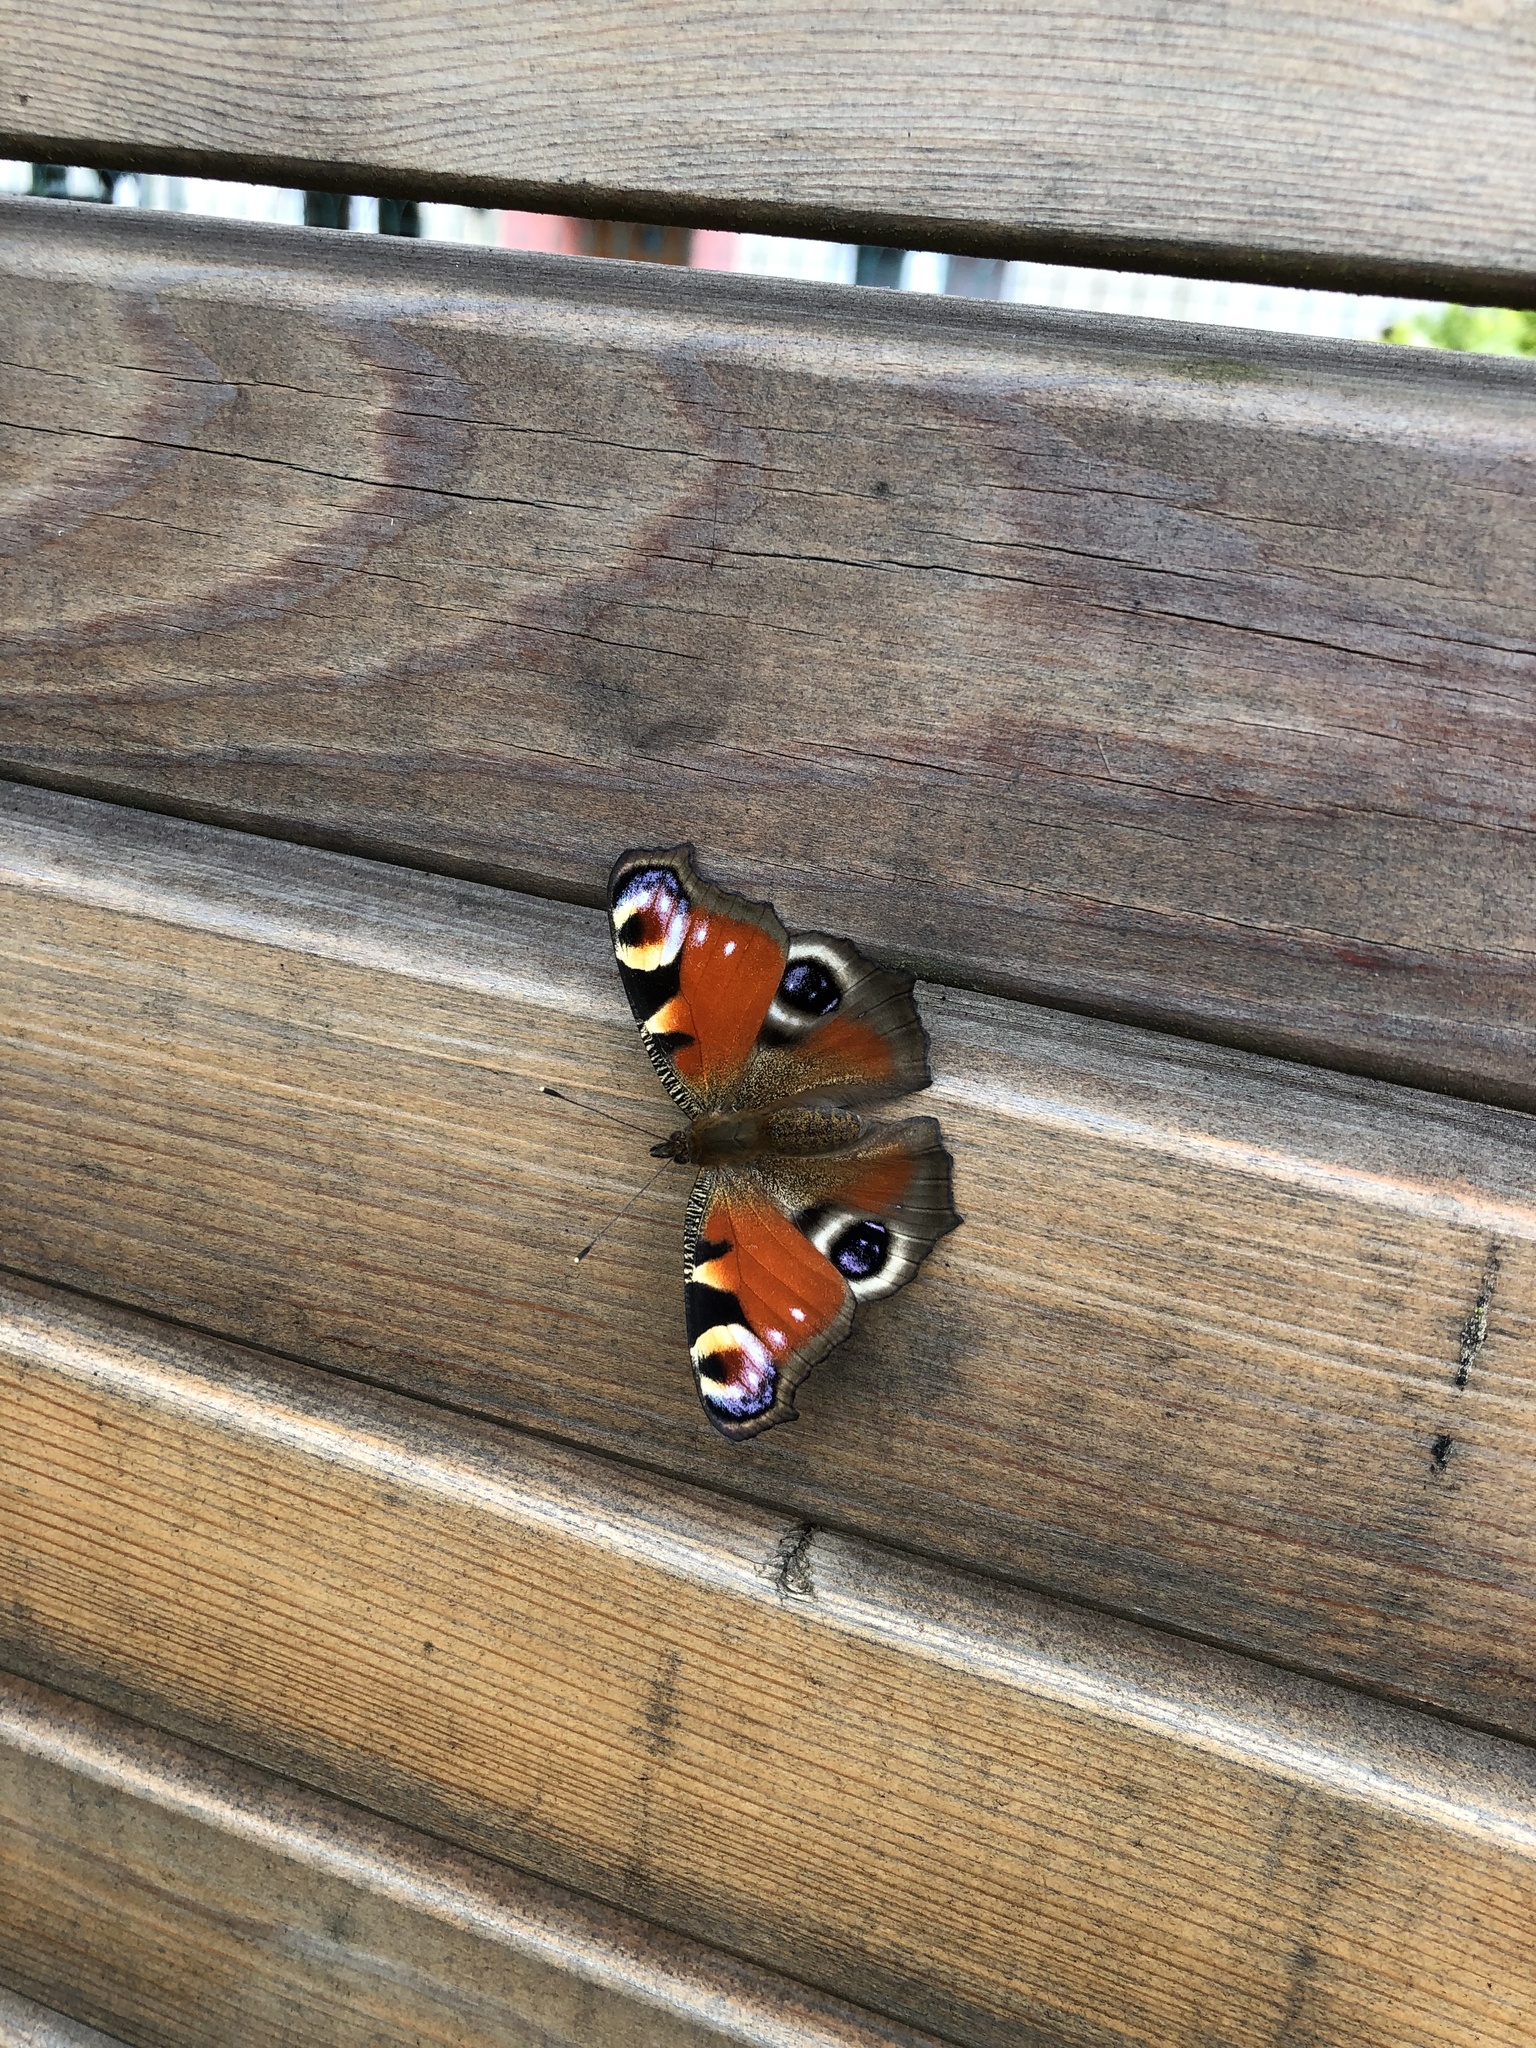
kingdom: Animalia
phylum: Arthropoda
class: Insecta
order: Lepidoptera
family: Nymphalidae
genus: Aglais
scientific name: Aglais io
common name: Peacock
